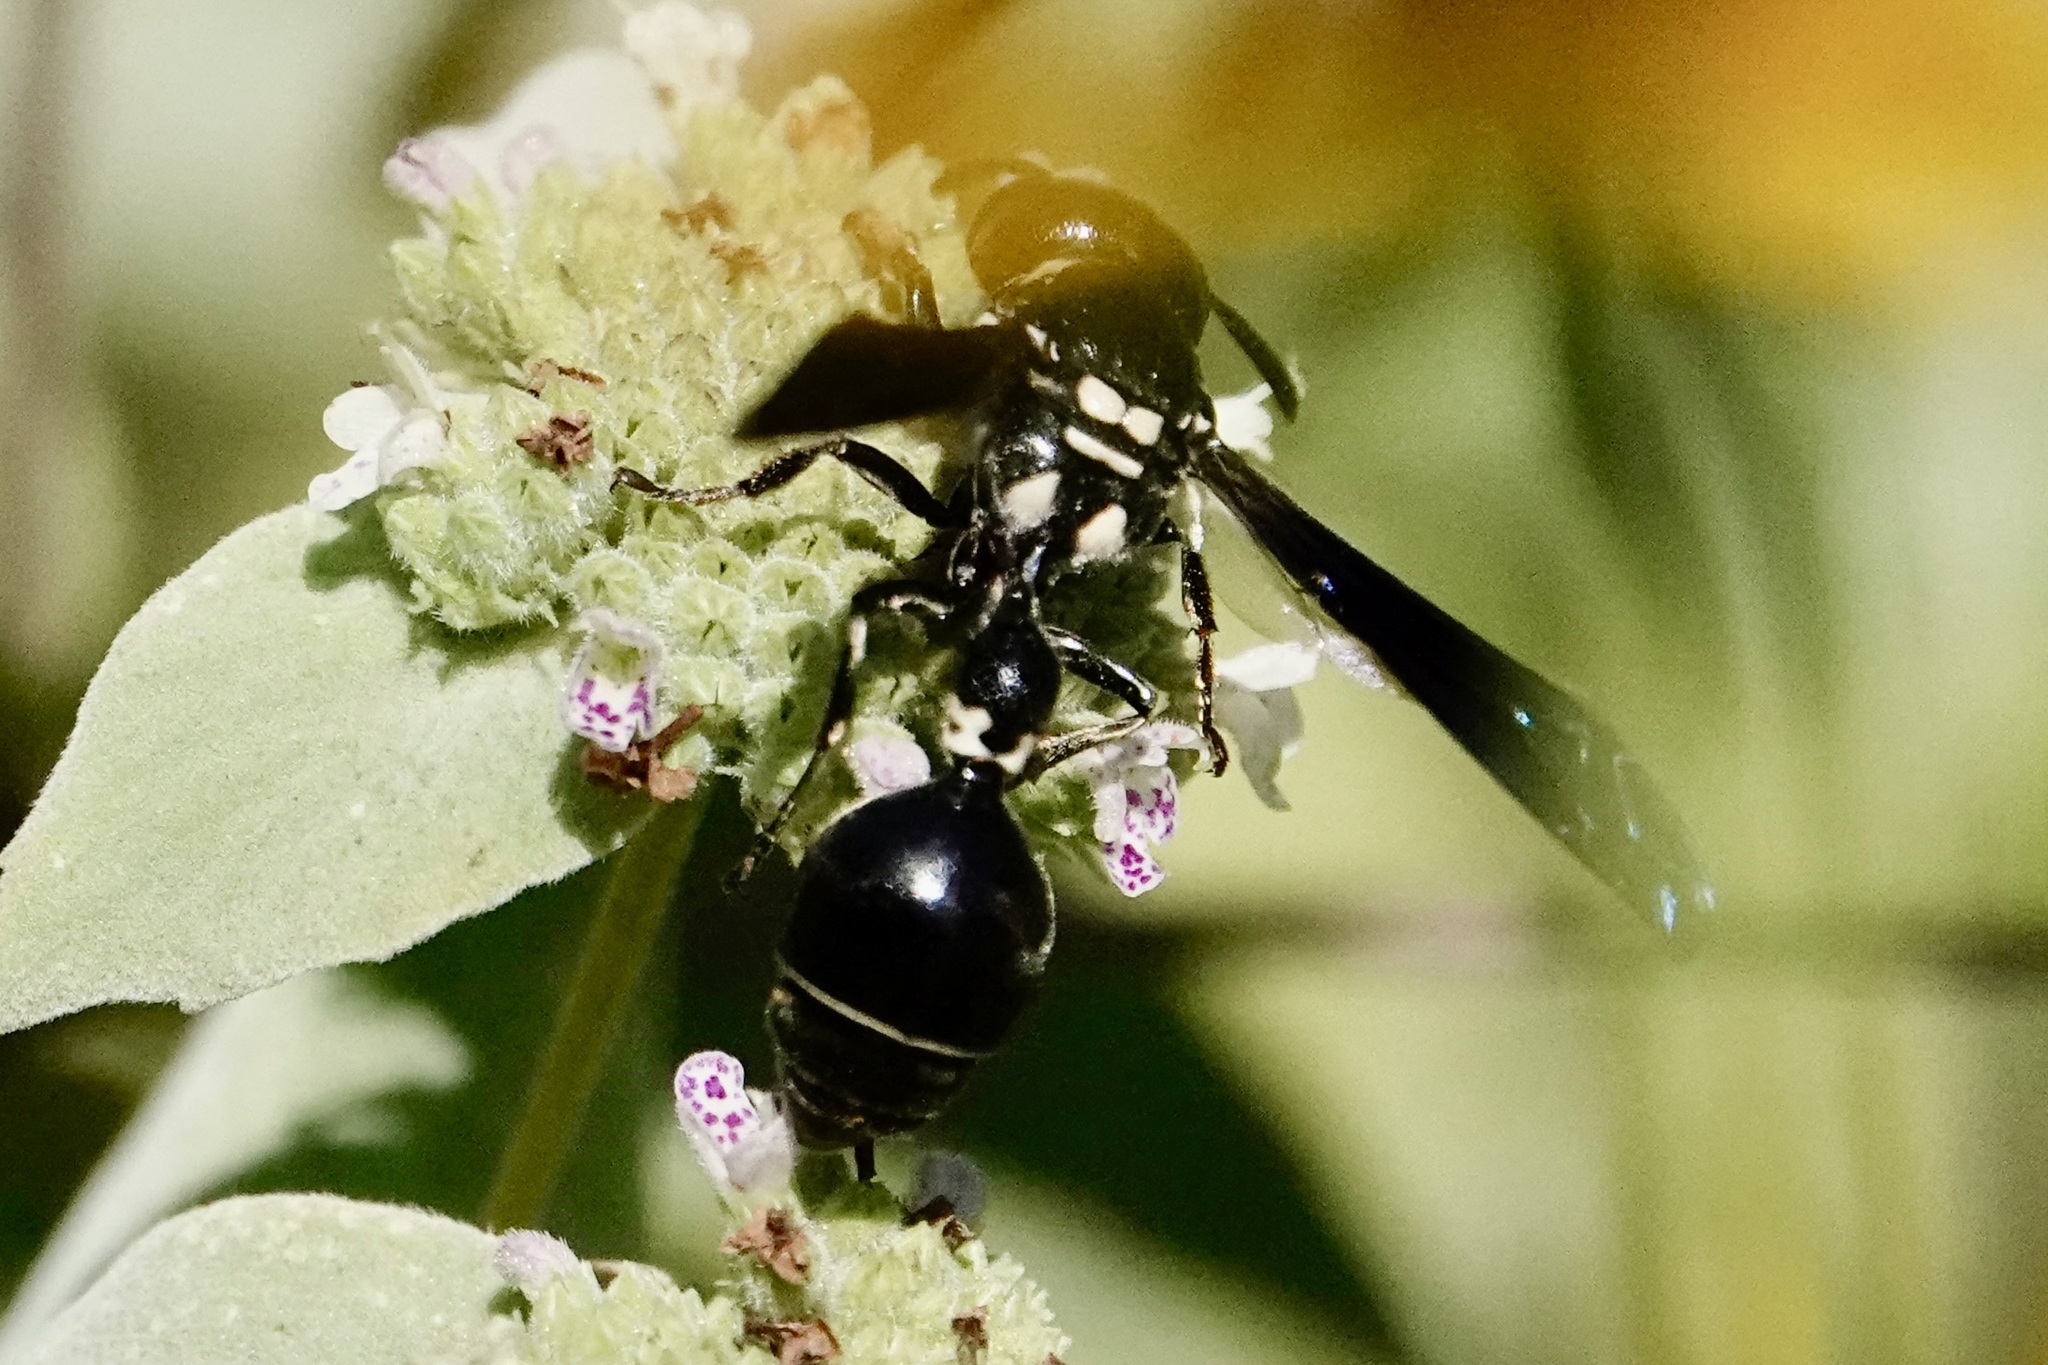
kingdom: Animalia
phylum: Arthropoda
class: Insecta
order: Hymenoptera
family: Eumenidae
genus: Zethus
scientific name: Zethus spinipes
